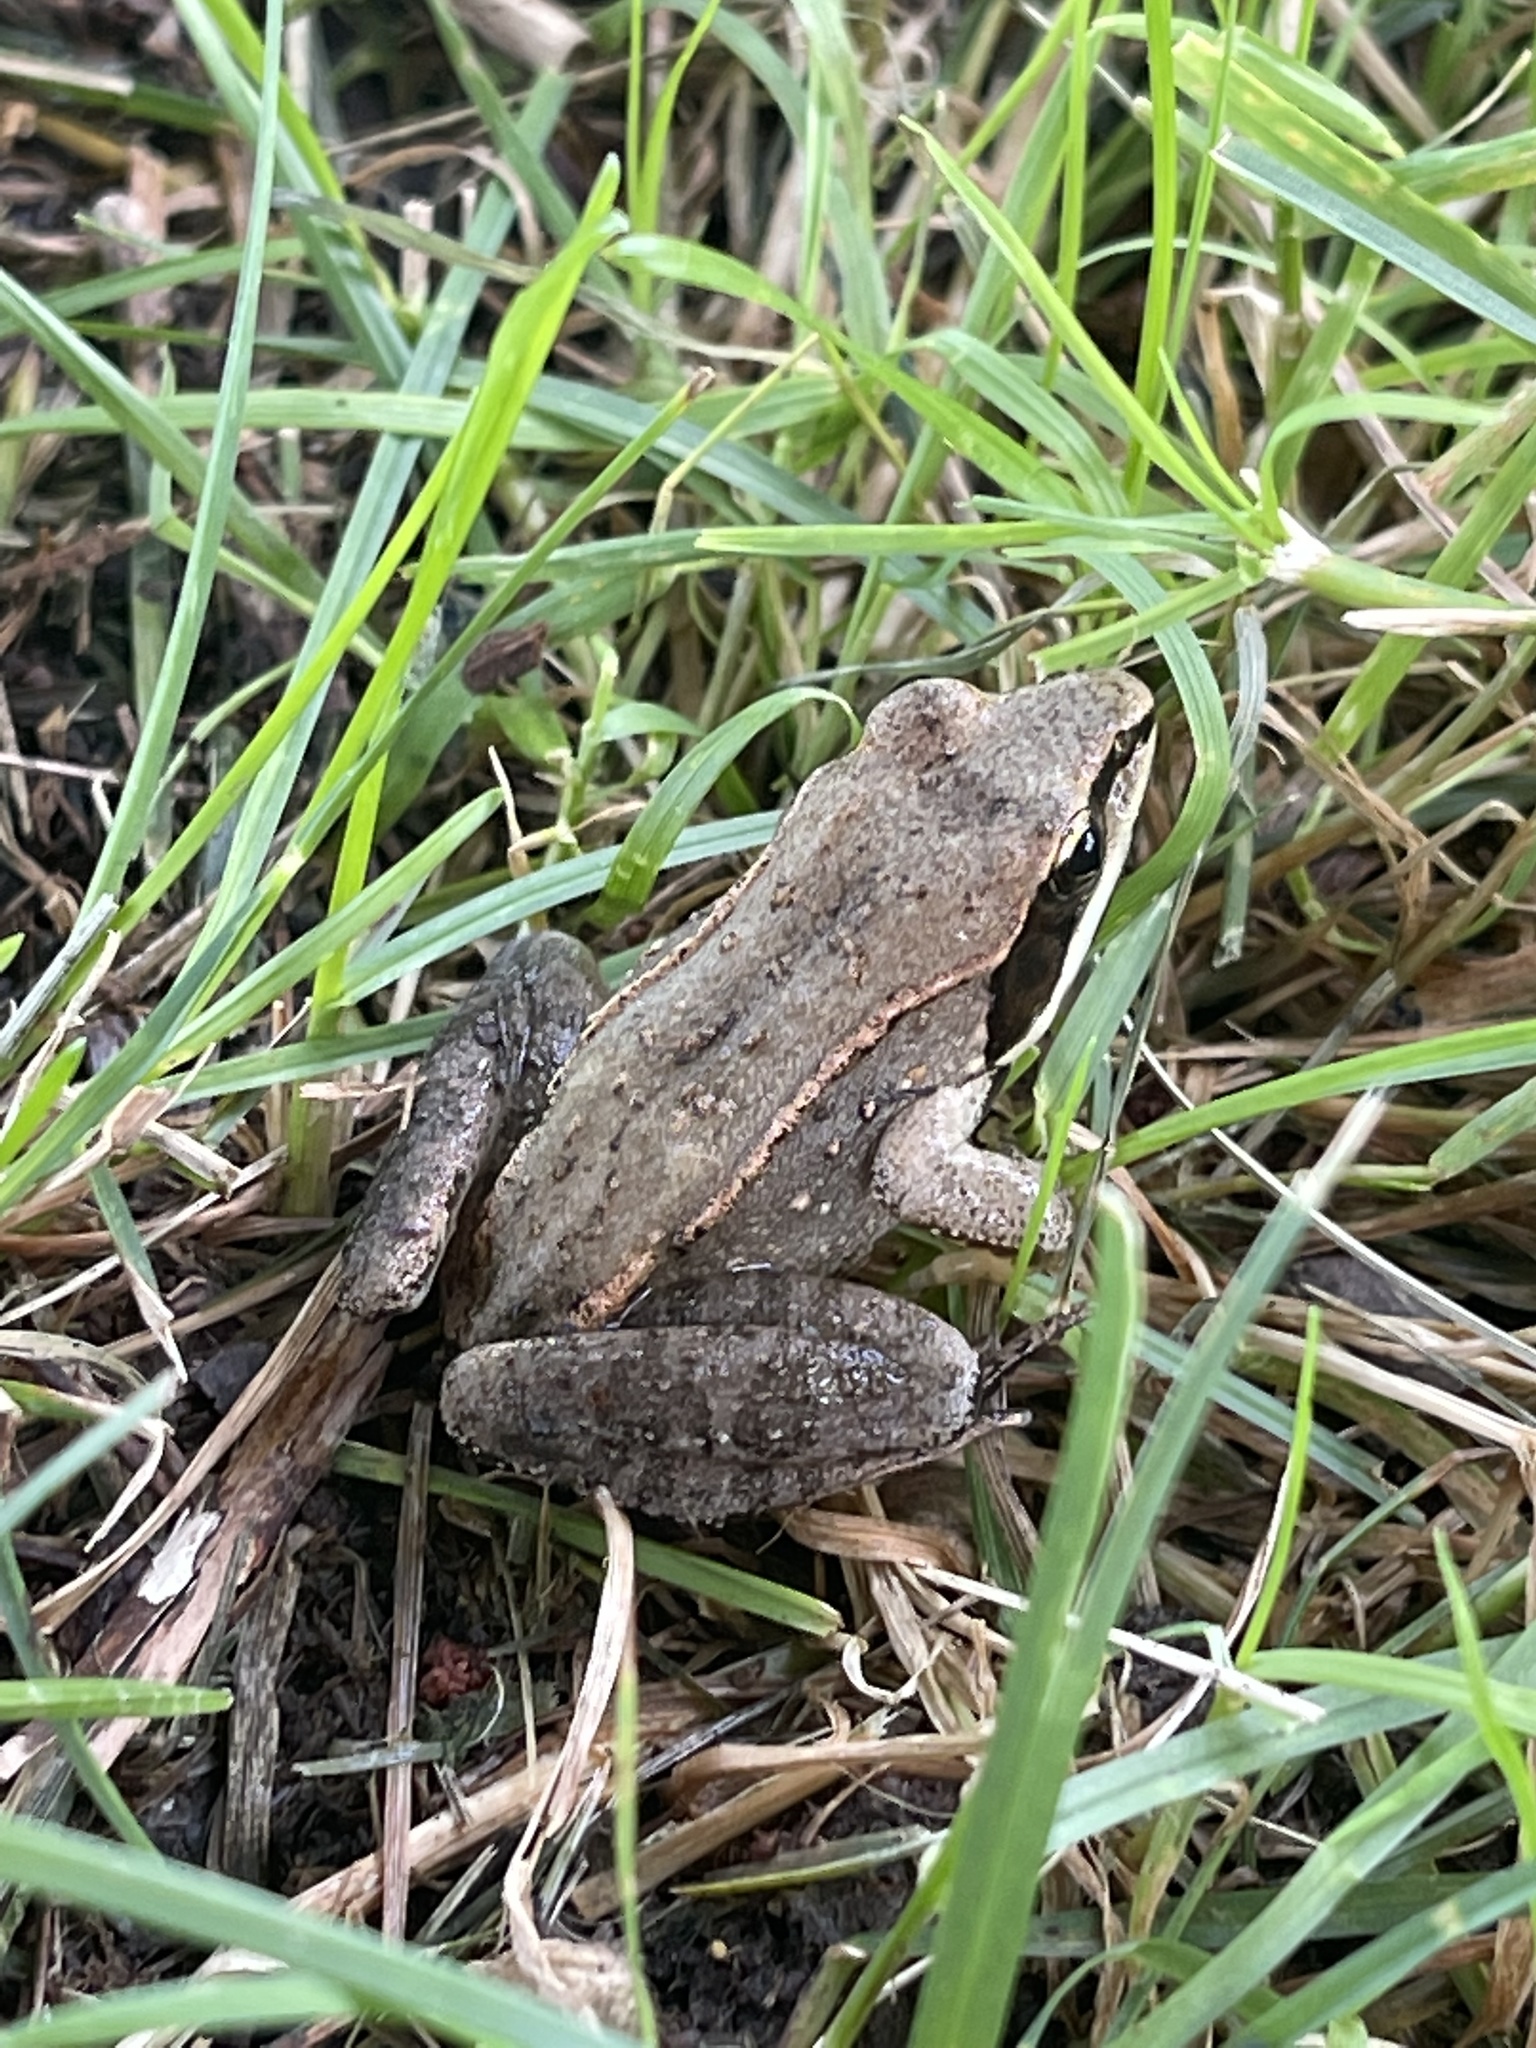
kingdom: Animalia
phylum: Chordata
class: Amphibia
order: Anura
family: Ranidae
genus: Lithobates
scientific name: Lithobates sylvaticus
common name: Wood frog
